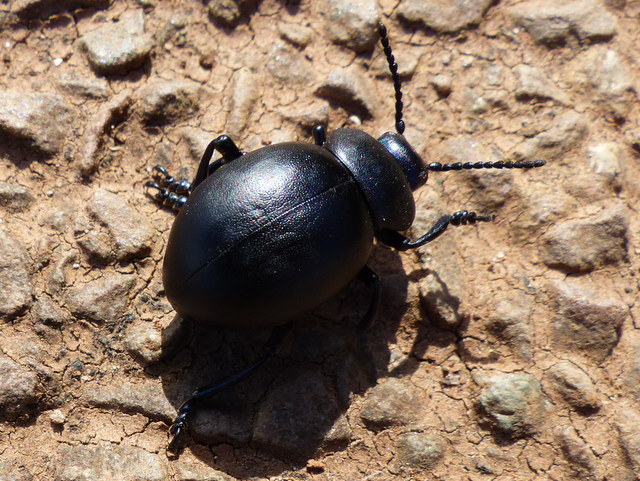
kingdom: Animalia
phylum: Arthropoda
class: Insecta
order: Coleoptera
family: Chrysomelidae
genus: Timarcha
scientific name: Timarcha tenebricosa
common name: Bloody-nosed beetle
